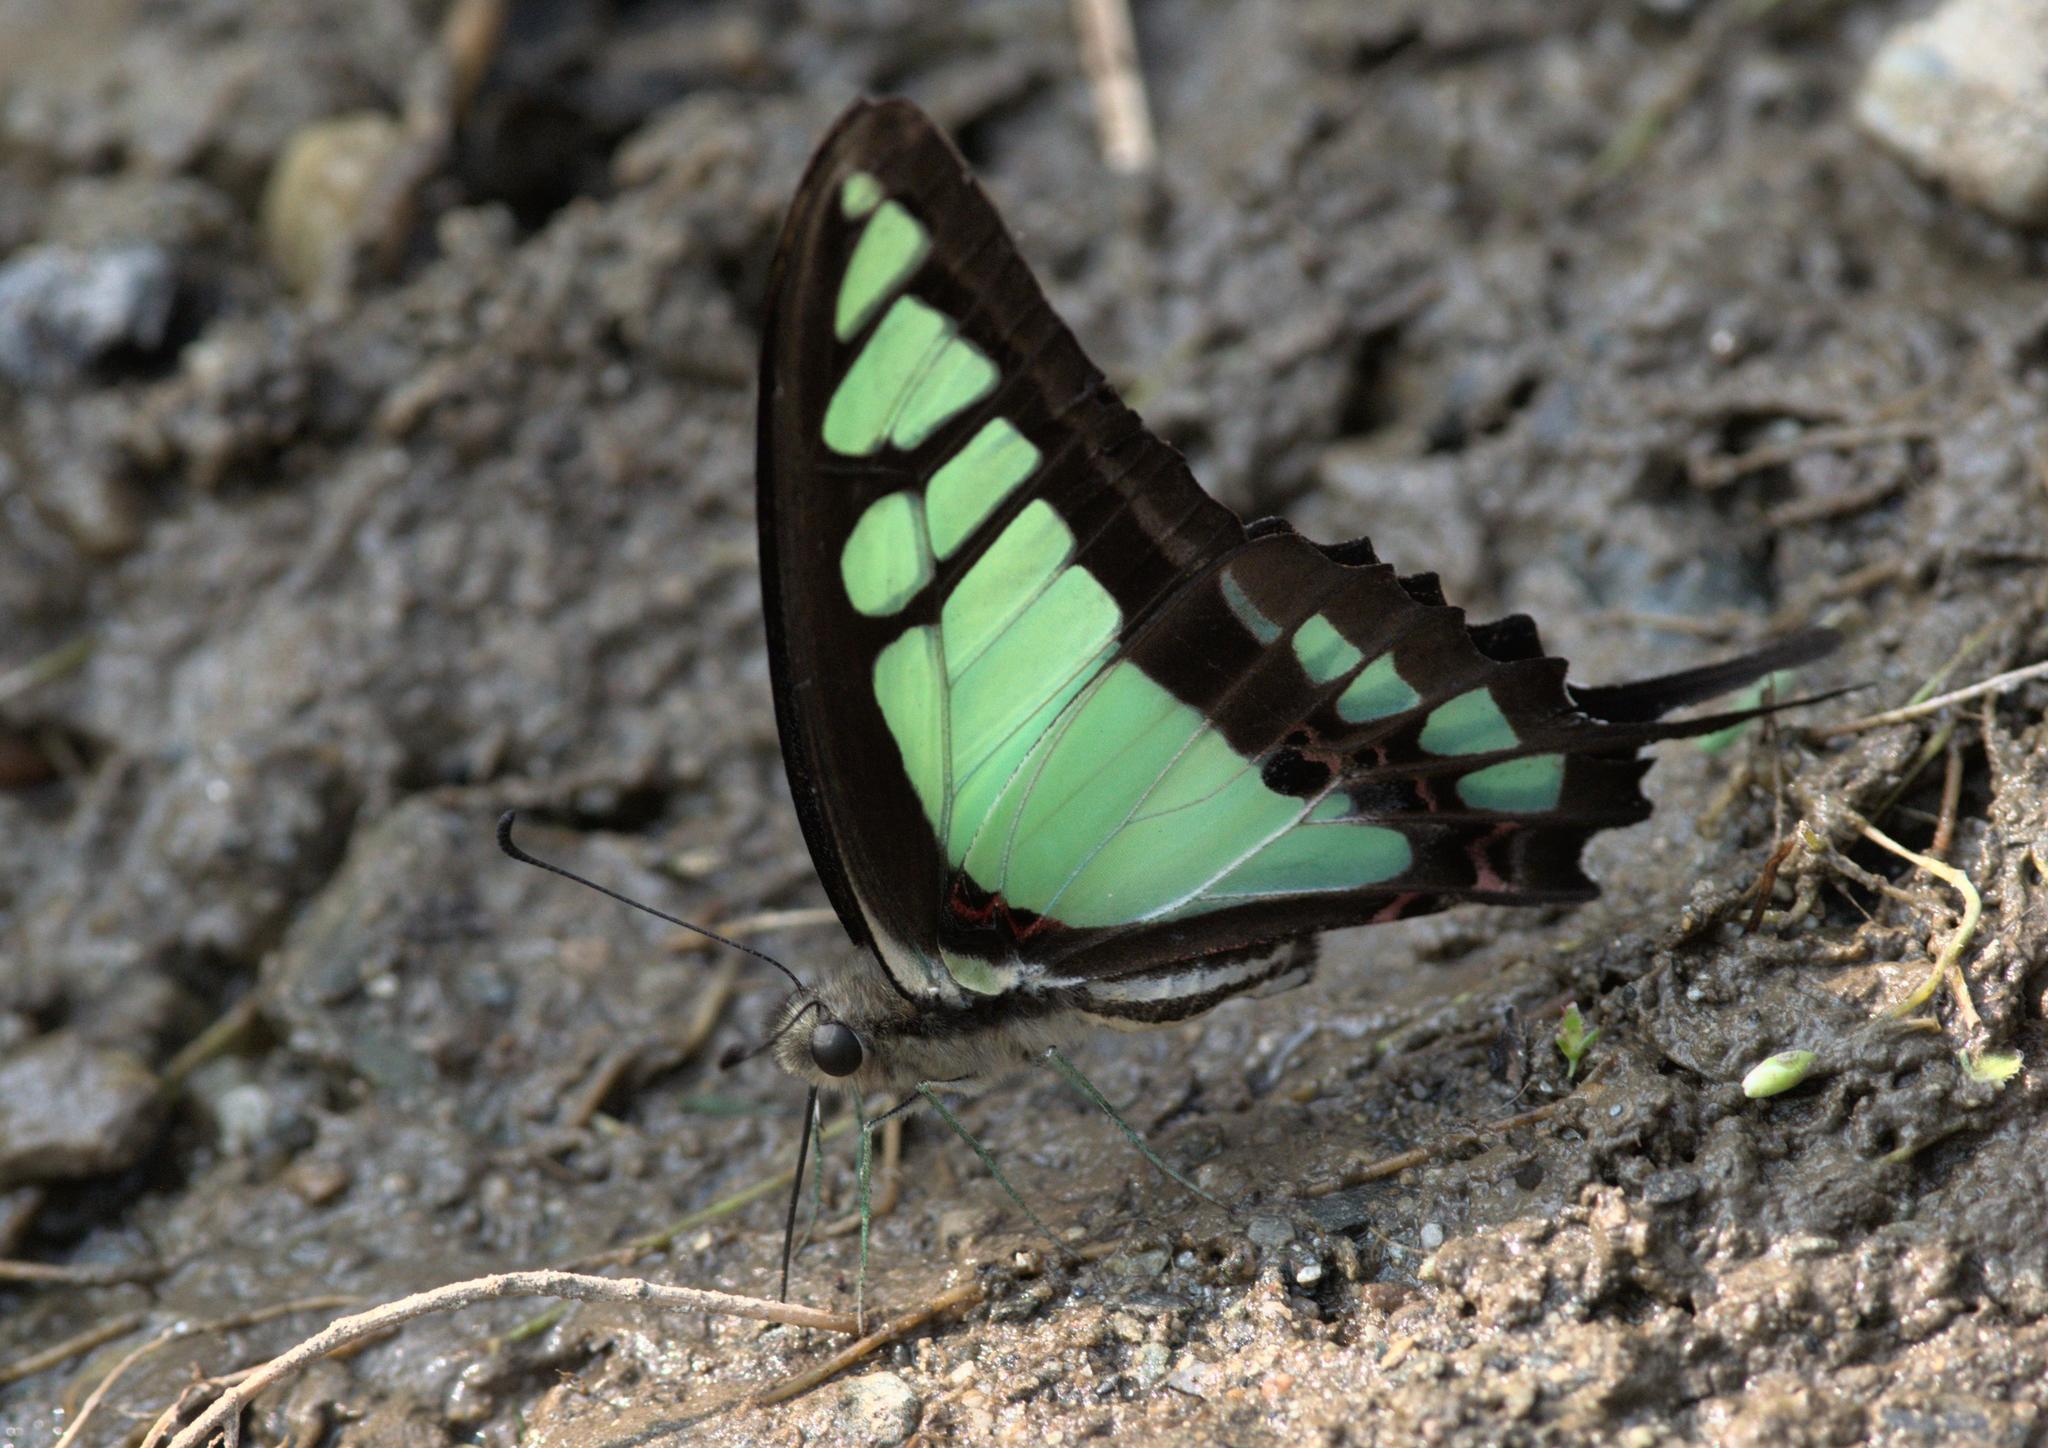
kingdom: Animalia
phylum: Arthropoda
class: Insecta
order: Lepidoptera
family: Papilionidae
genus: Graphium
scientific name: Graphium cloanthus
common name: Glassy bluebottle
